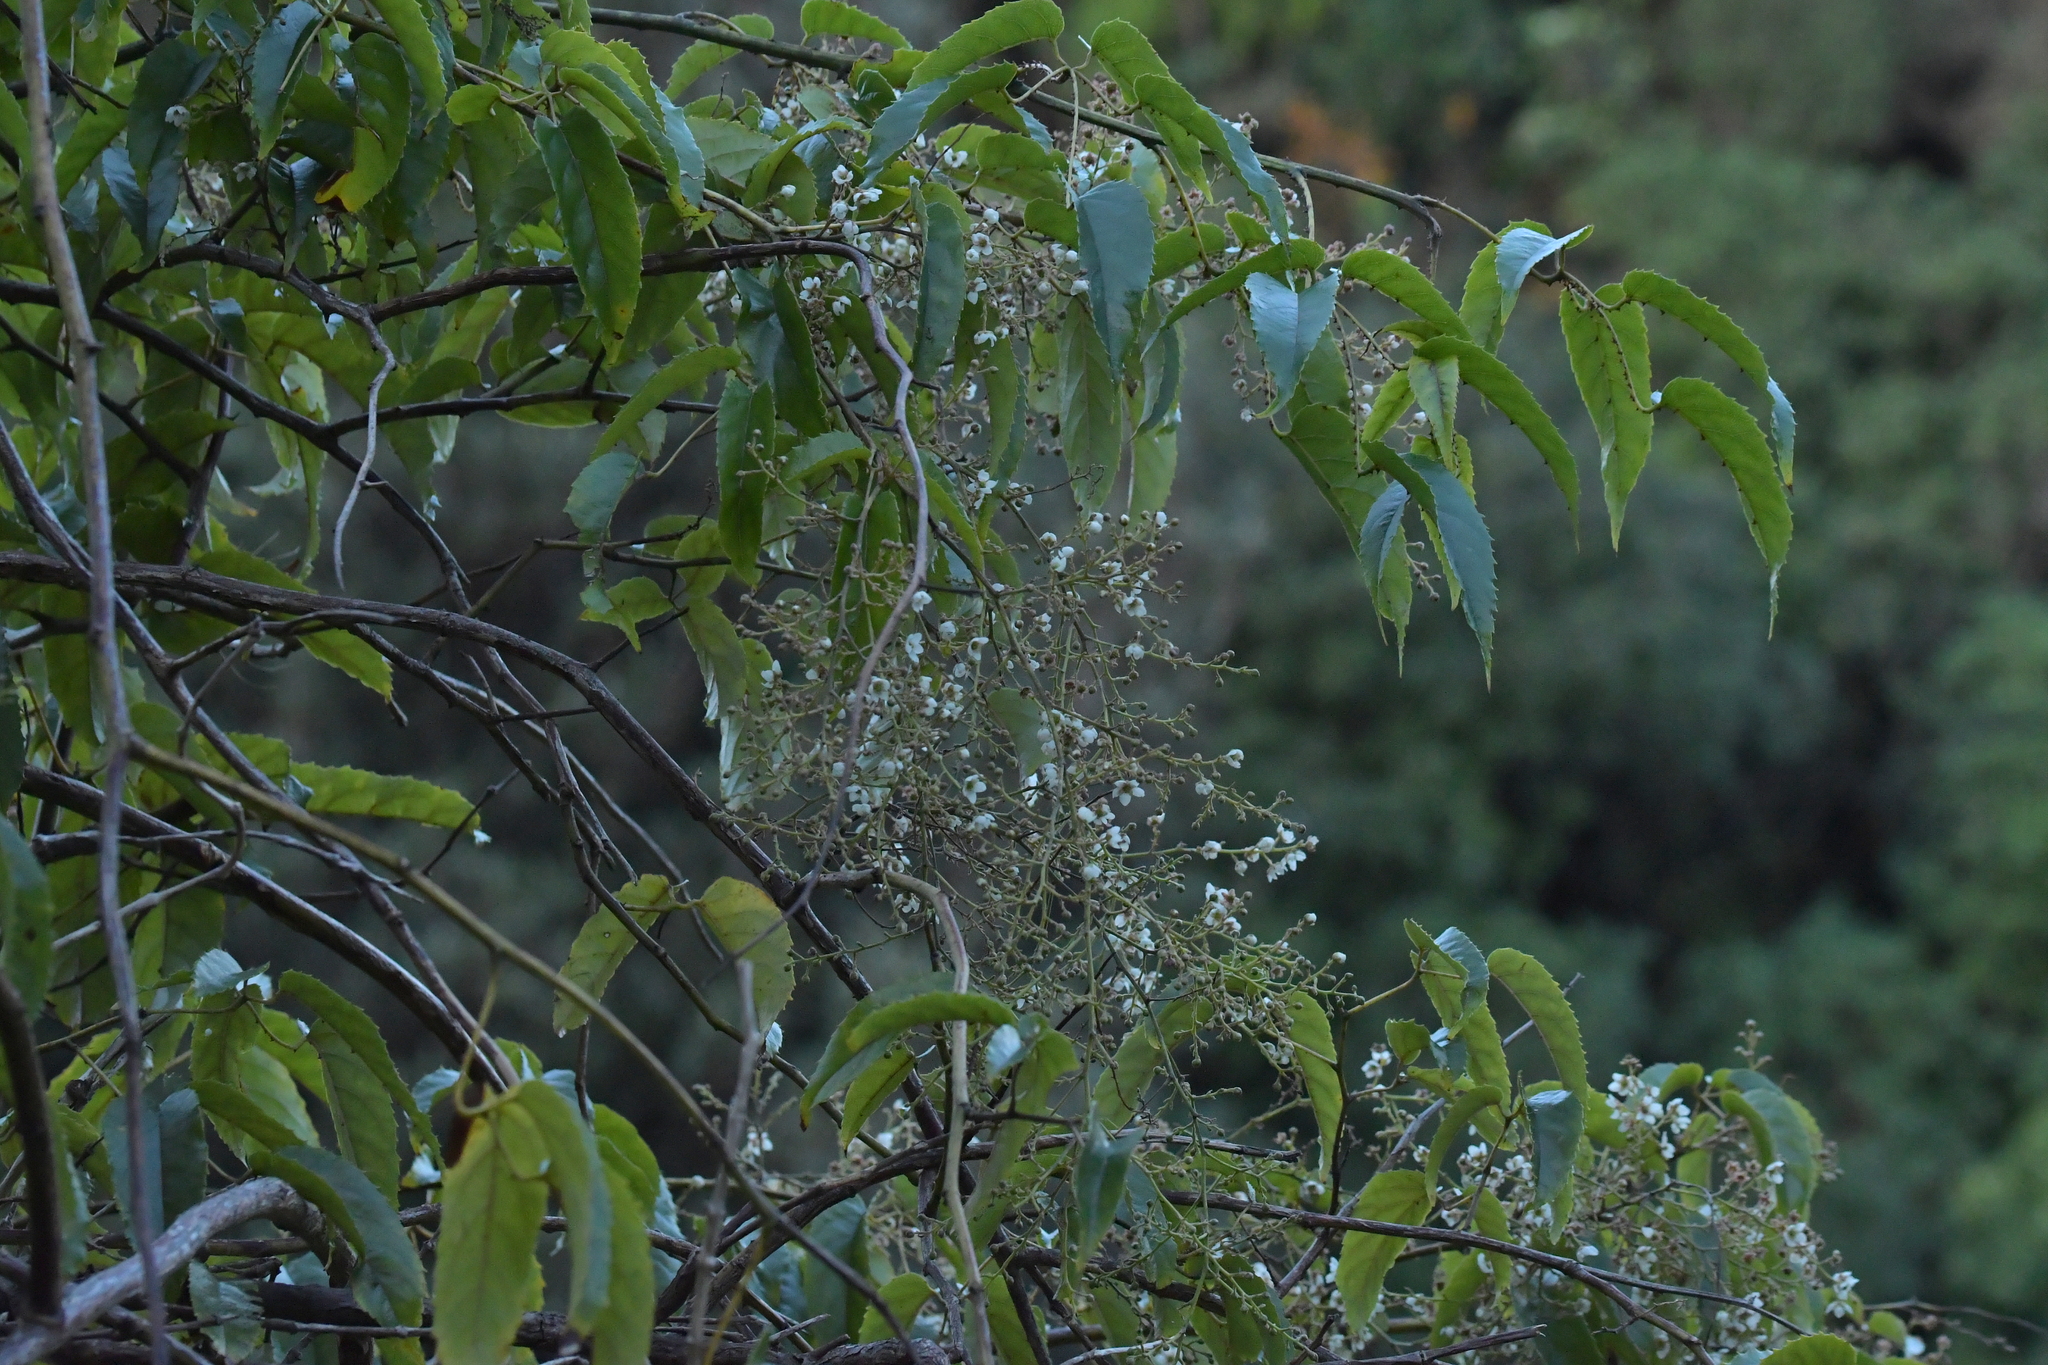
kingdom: Plantae
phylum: Tracheophyta
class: Magnoliopsida
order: Rosales
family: Rosaceae
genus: Rubus
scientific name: Rubus cissoides
